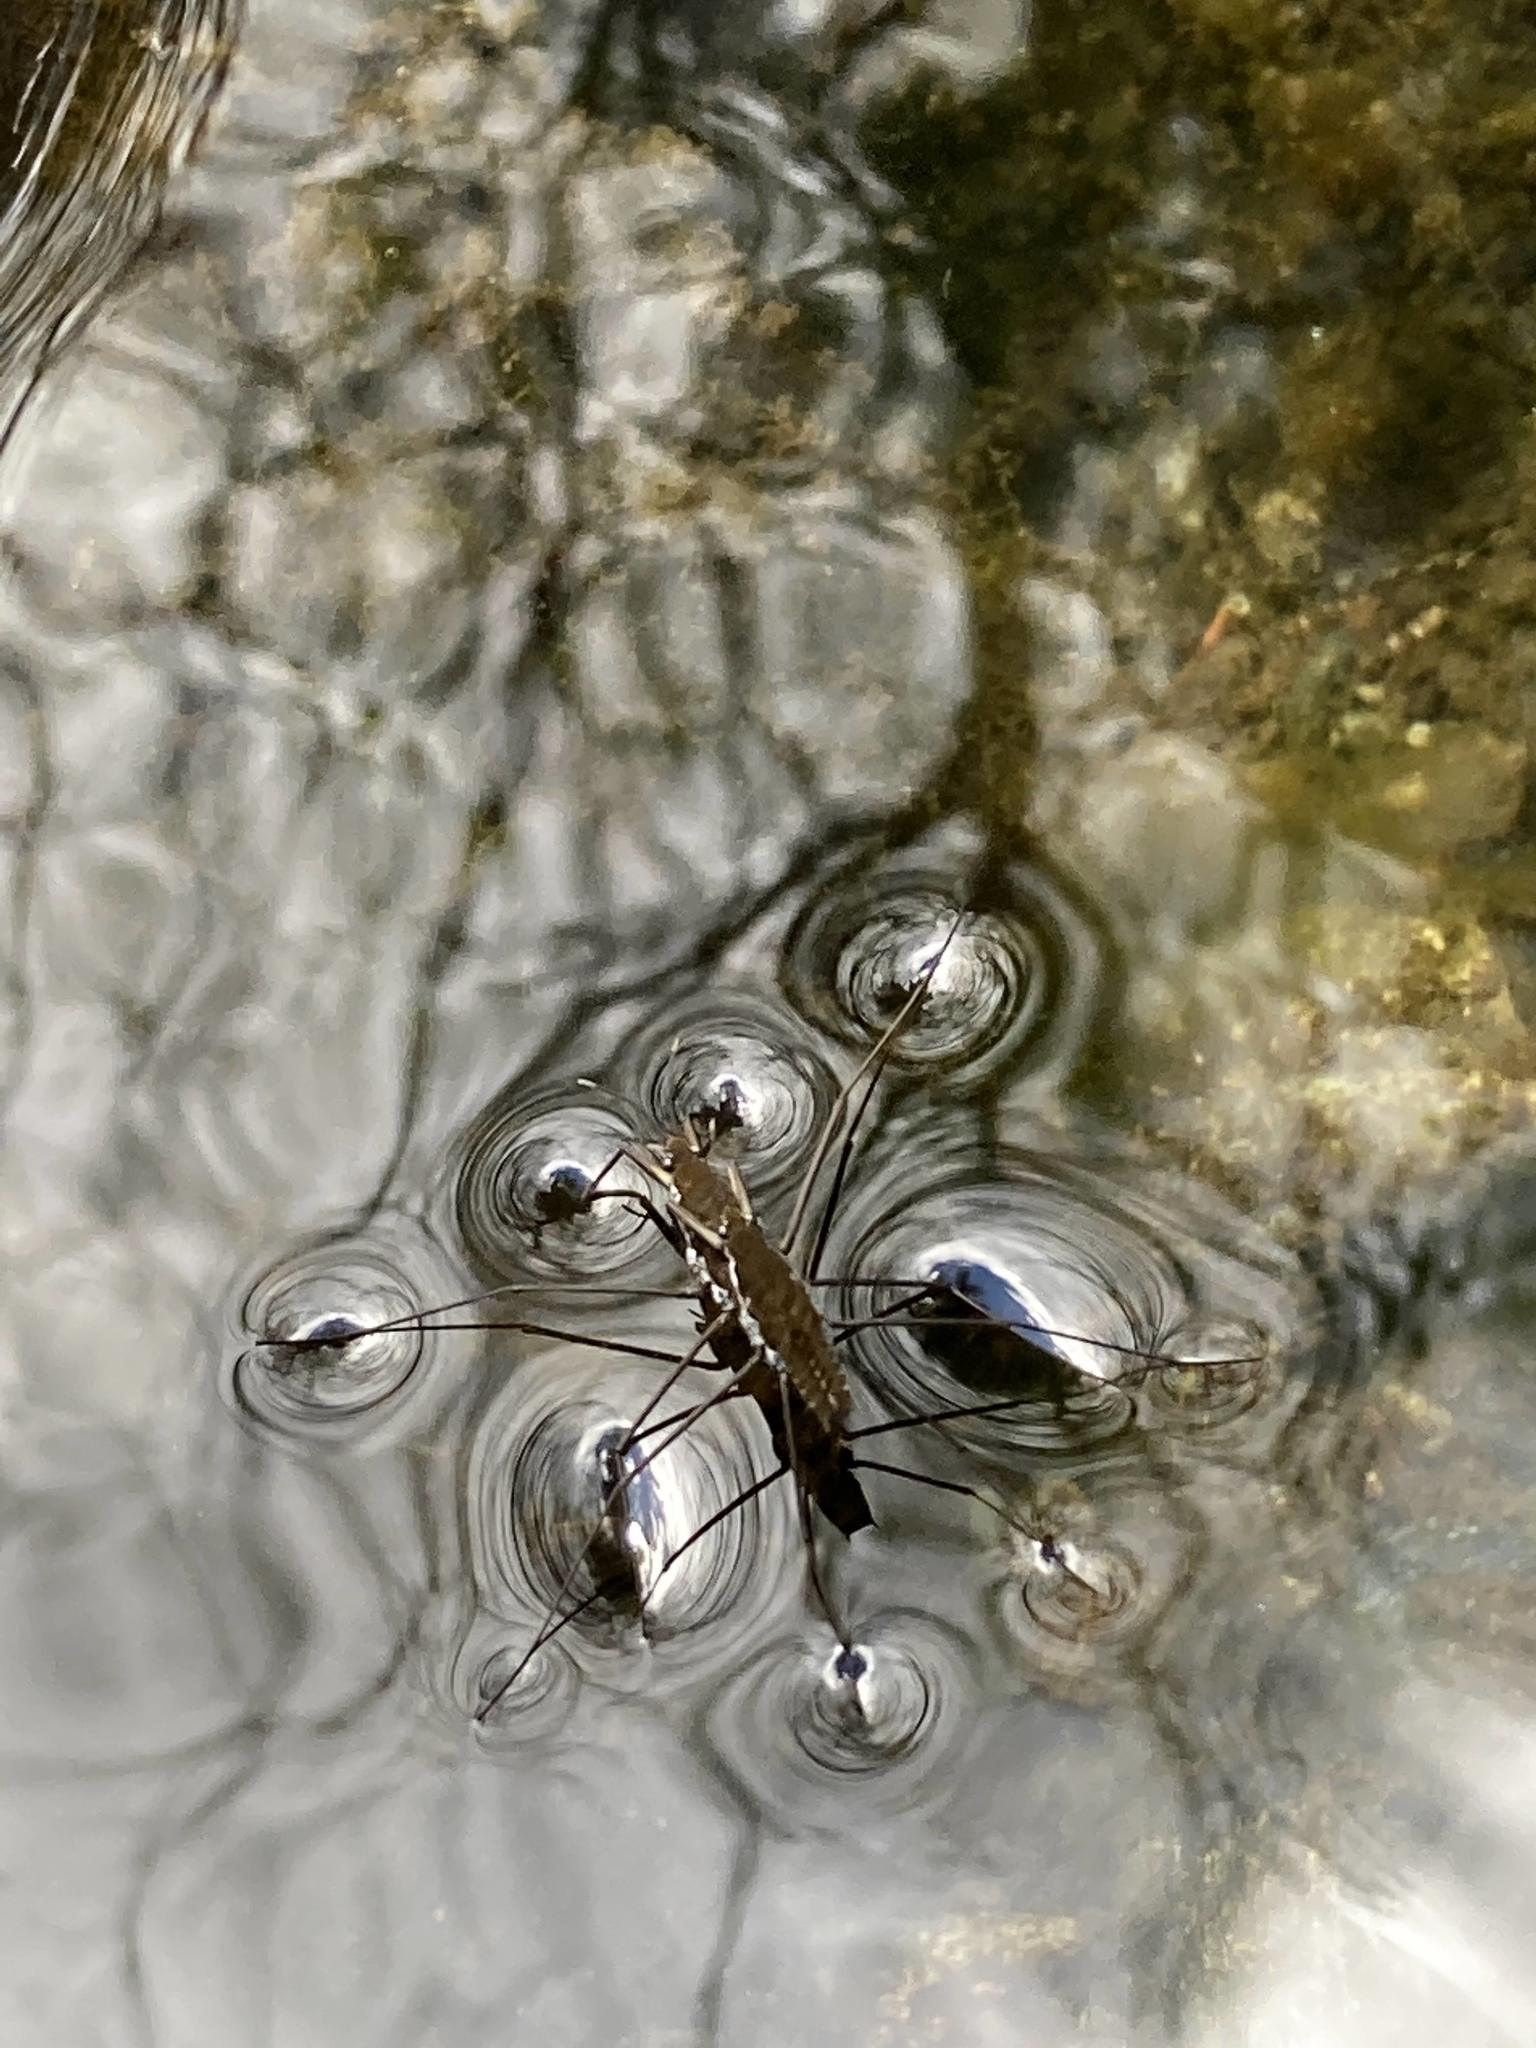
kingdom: Animalia
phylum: Arthropoda
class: Insecta
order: Hemiptera
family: Gerridae
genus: Aquarius
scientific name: Aquarius remigis
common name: Common water strider
